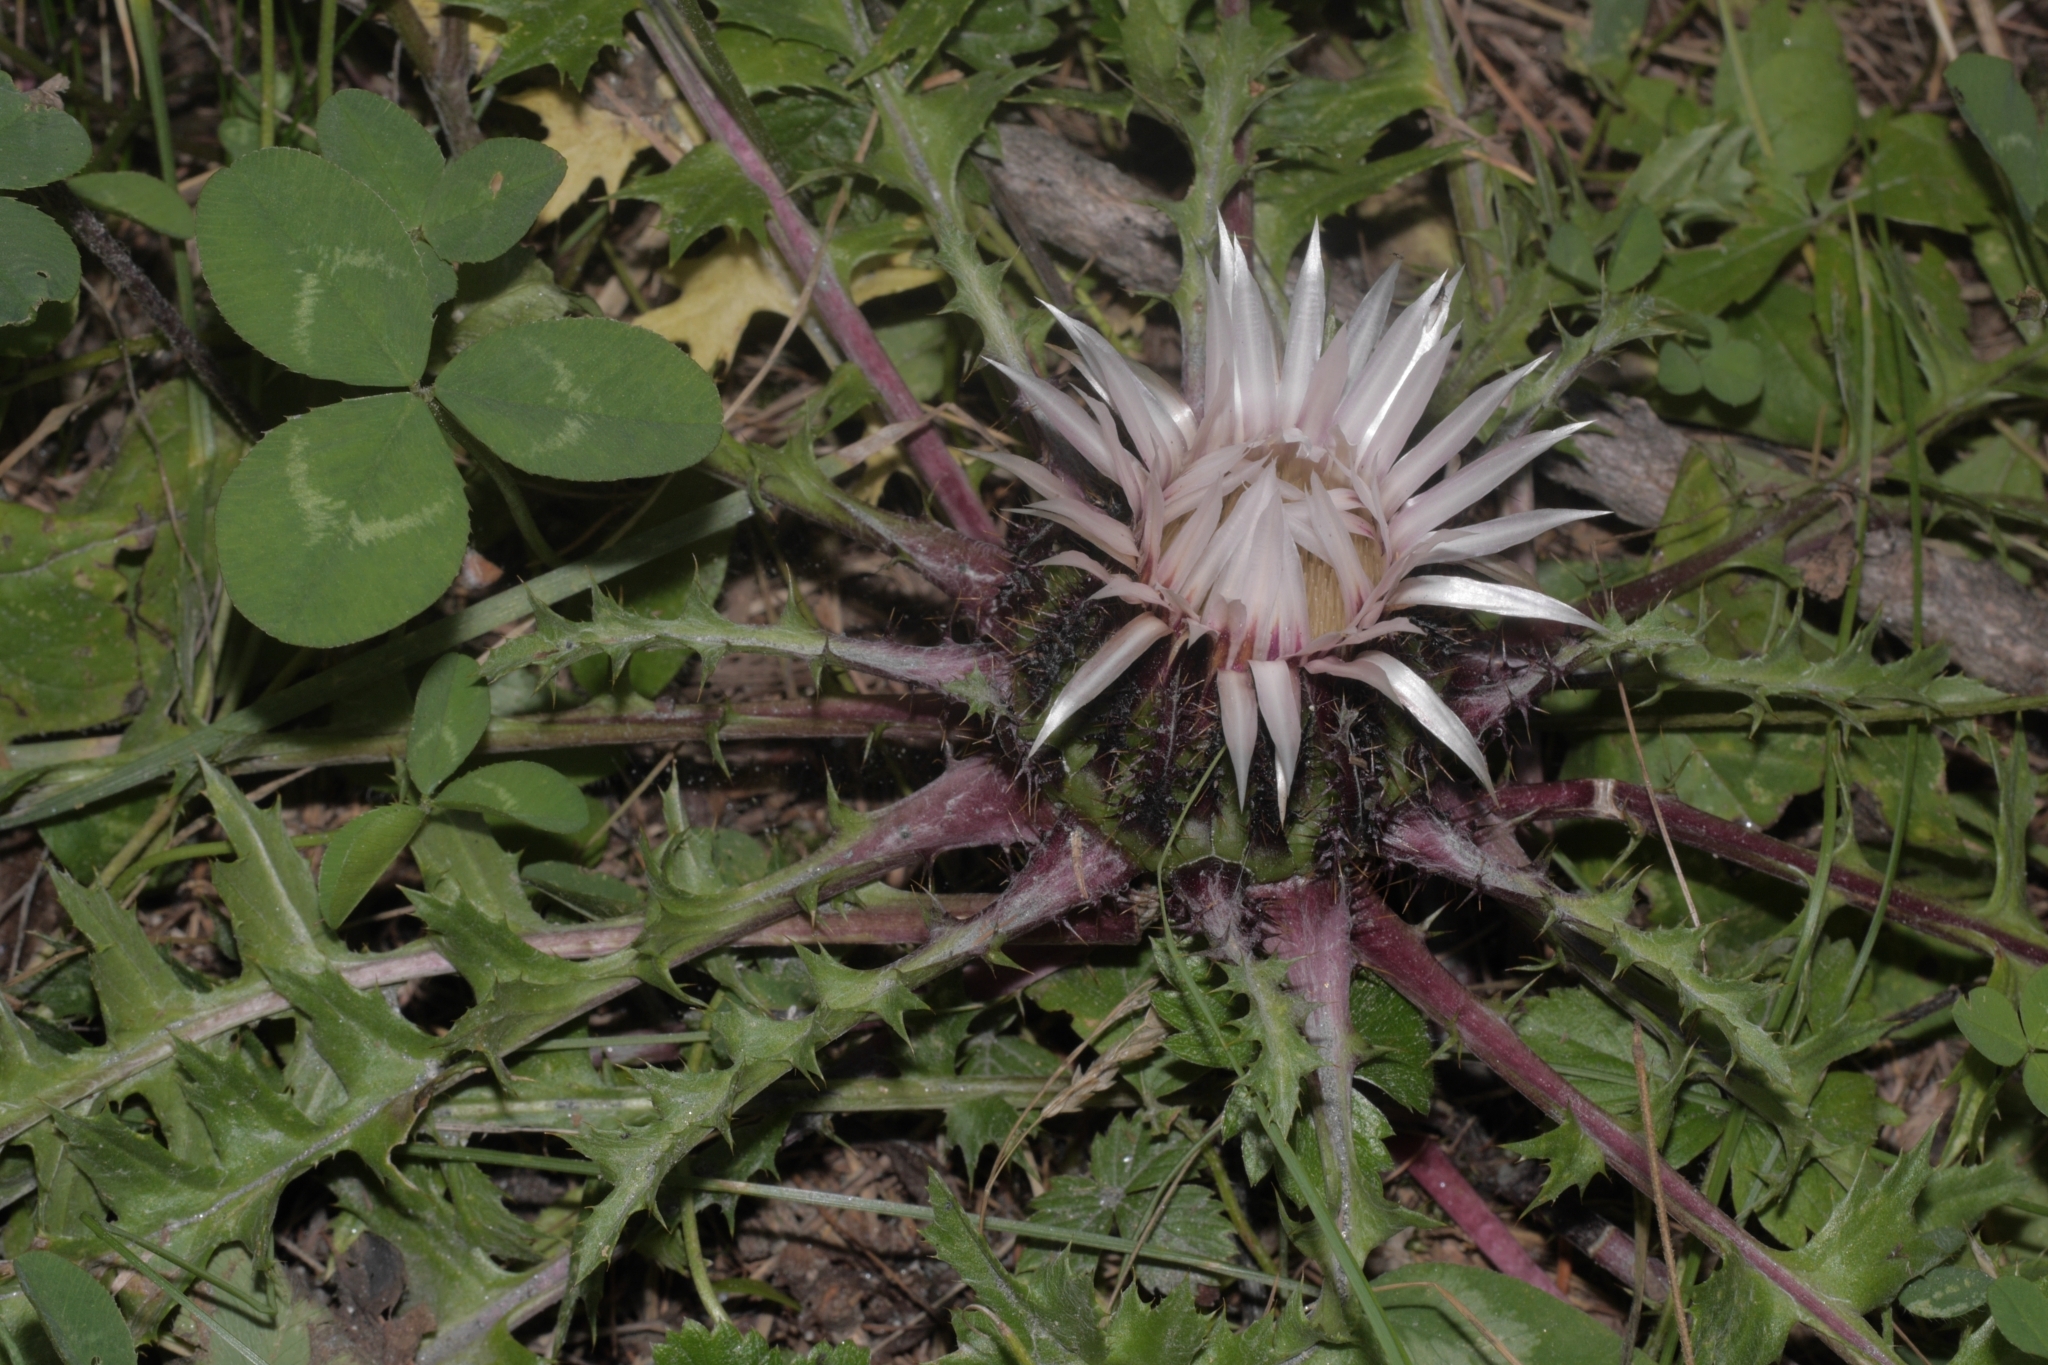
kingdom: Plantae
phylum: Tracheophyta
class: Magnoliopsida
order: Asterales
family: Asteraceae
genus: Carlina
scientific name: Carlina acaulis
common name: Stemless carline thistle
